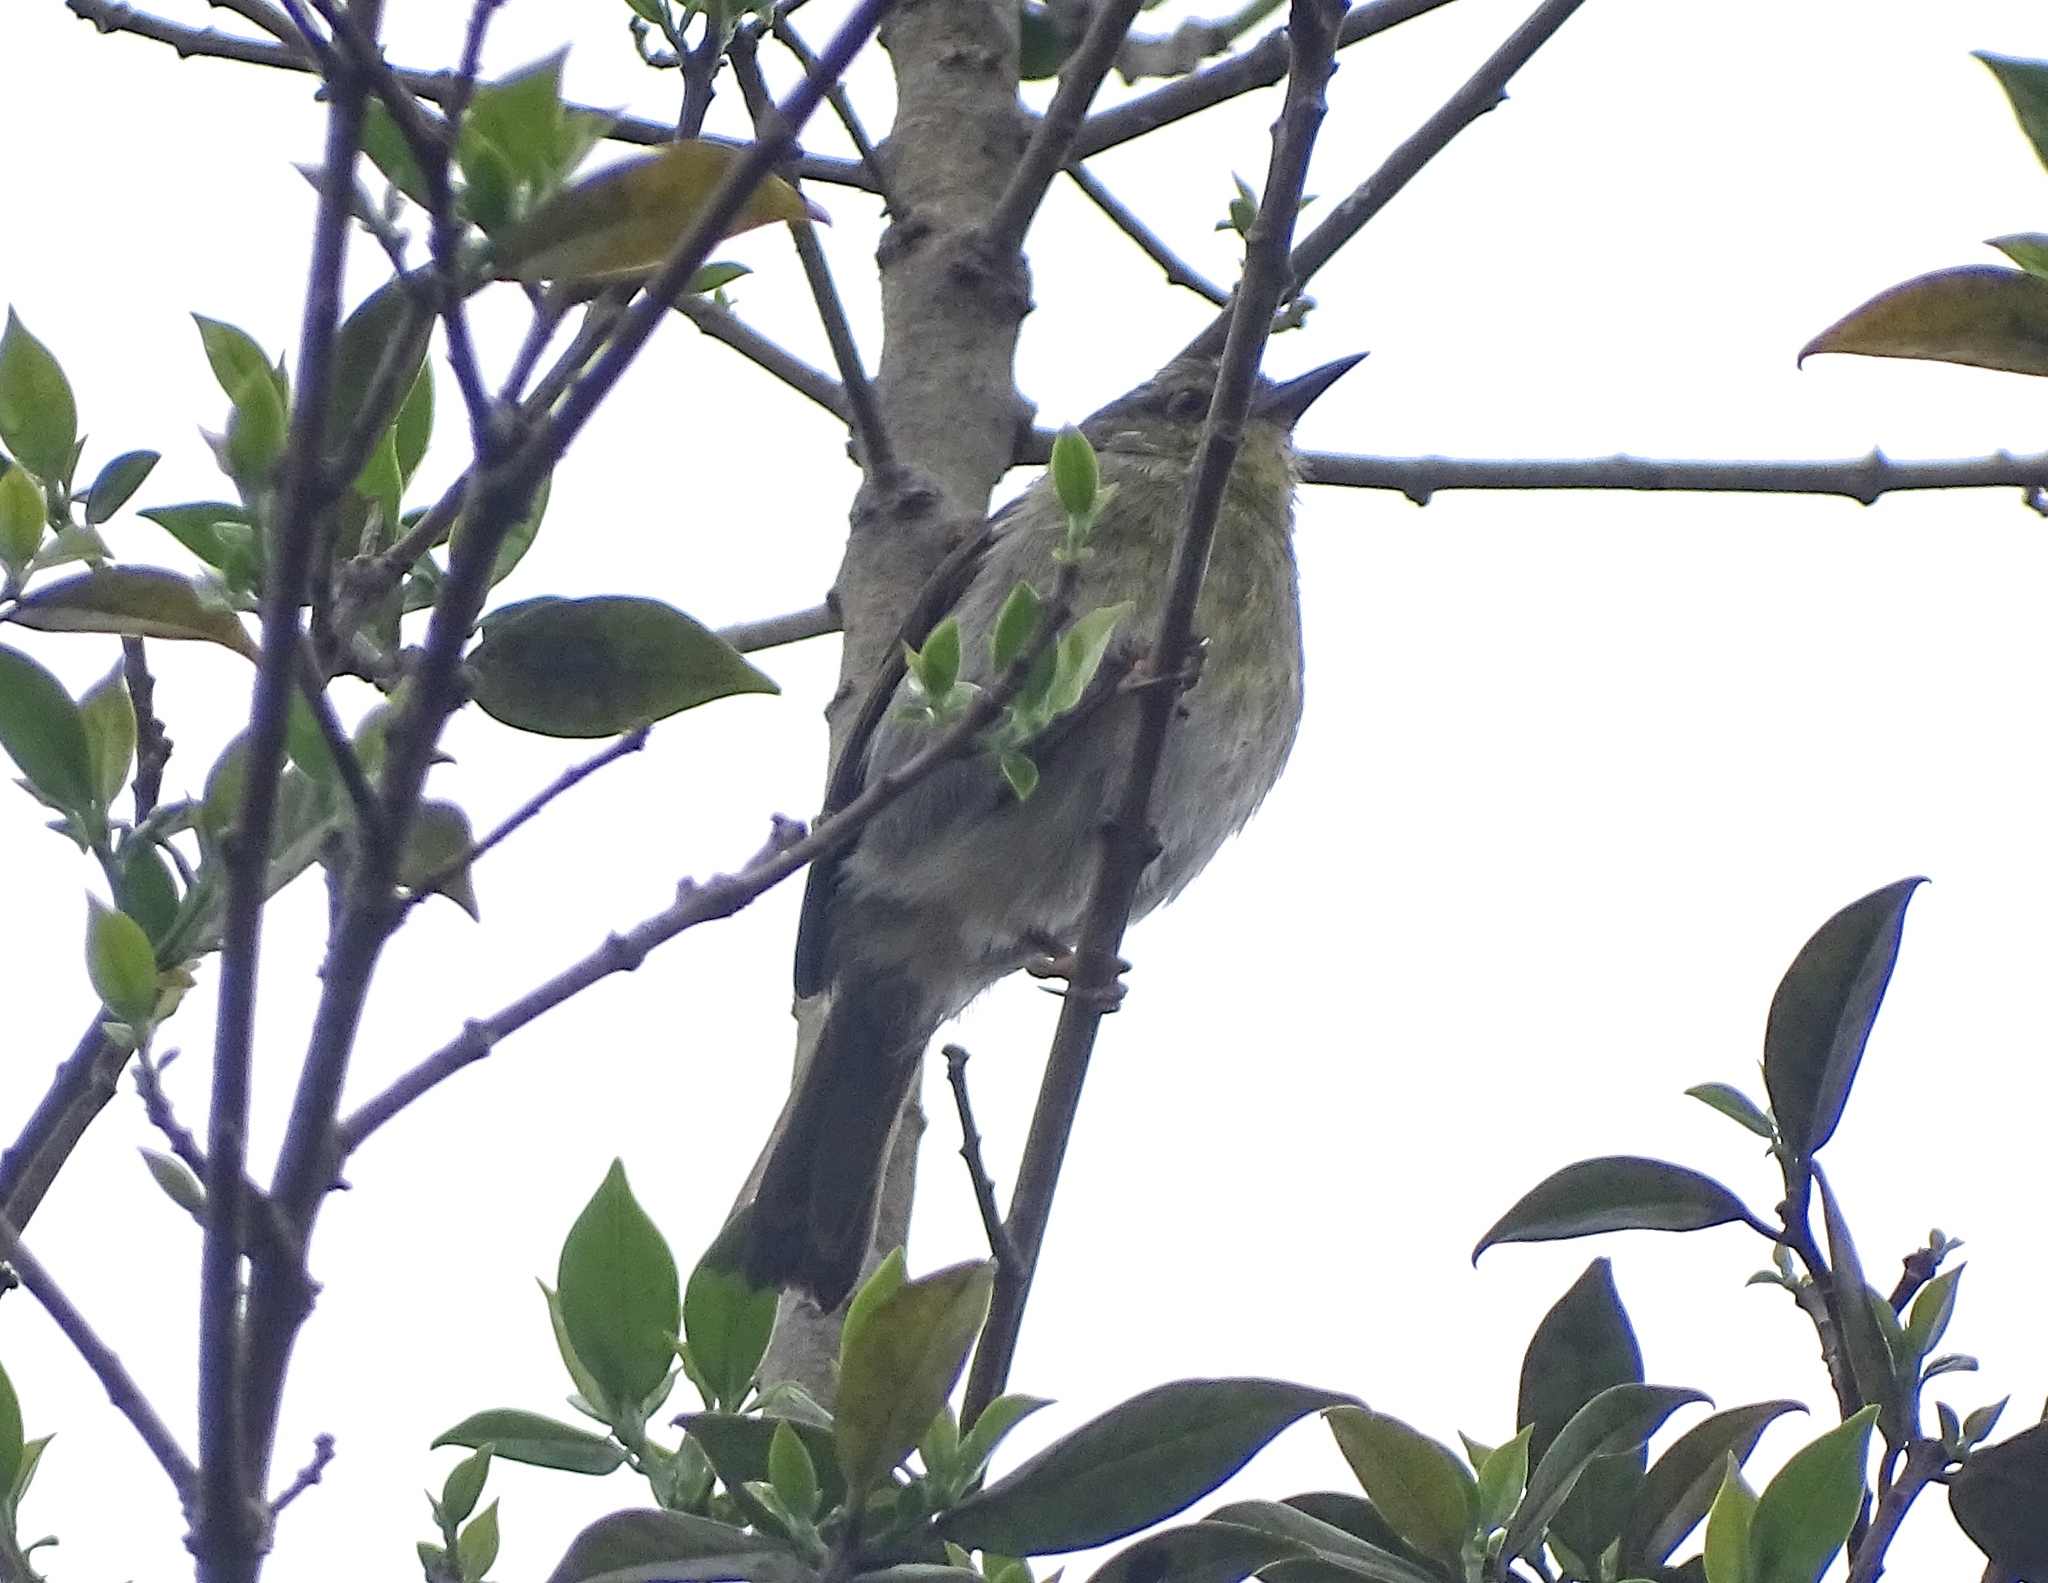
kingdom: Animalia
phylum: Chordata
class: Aves
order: Passeriformes
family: Cisticolidae
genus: Neomixis
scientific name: Neomixis striatigula
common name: Stripe-throated jery
